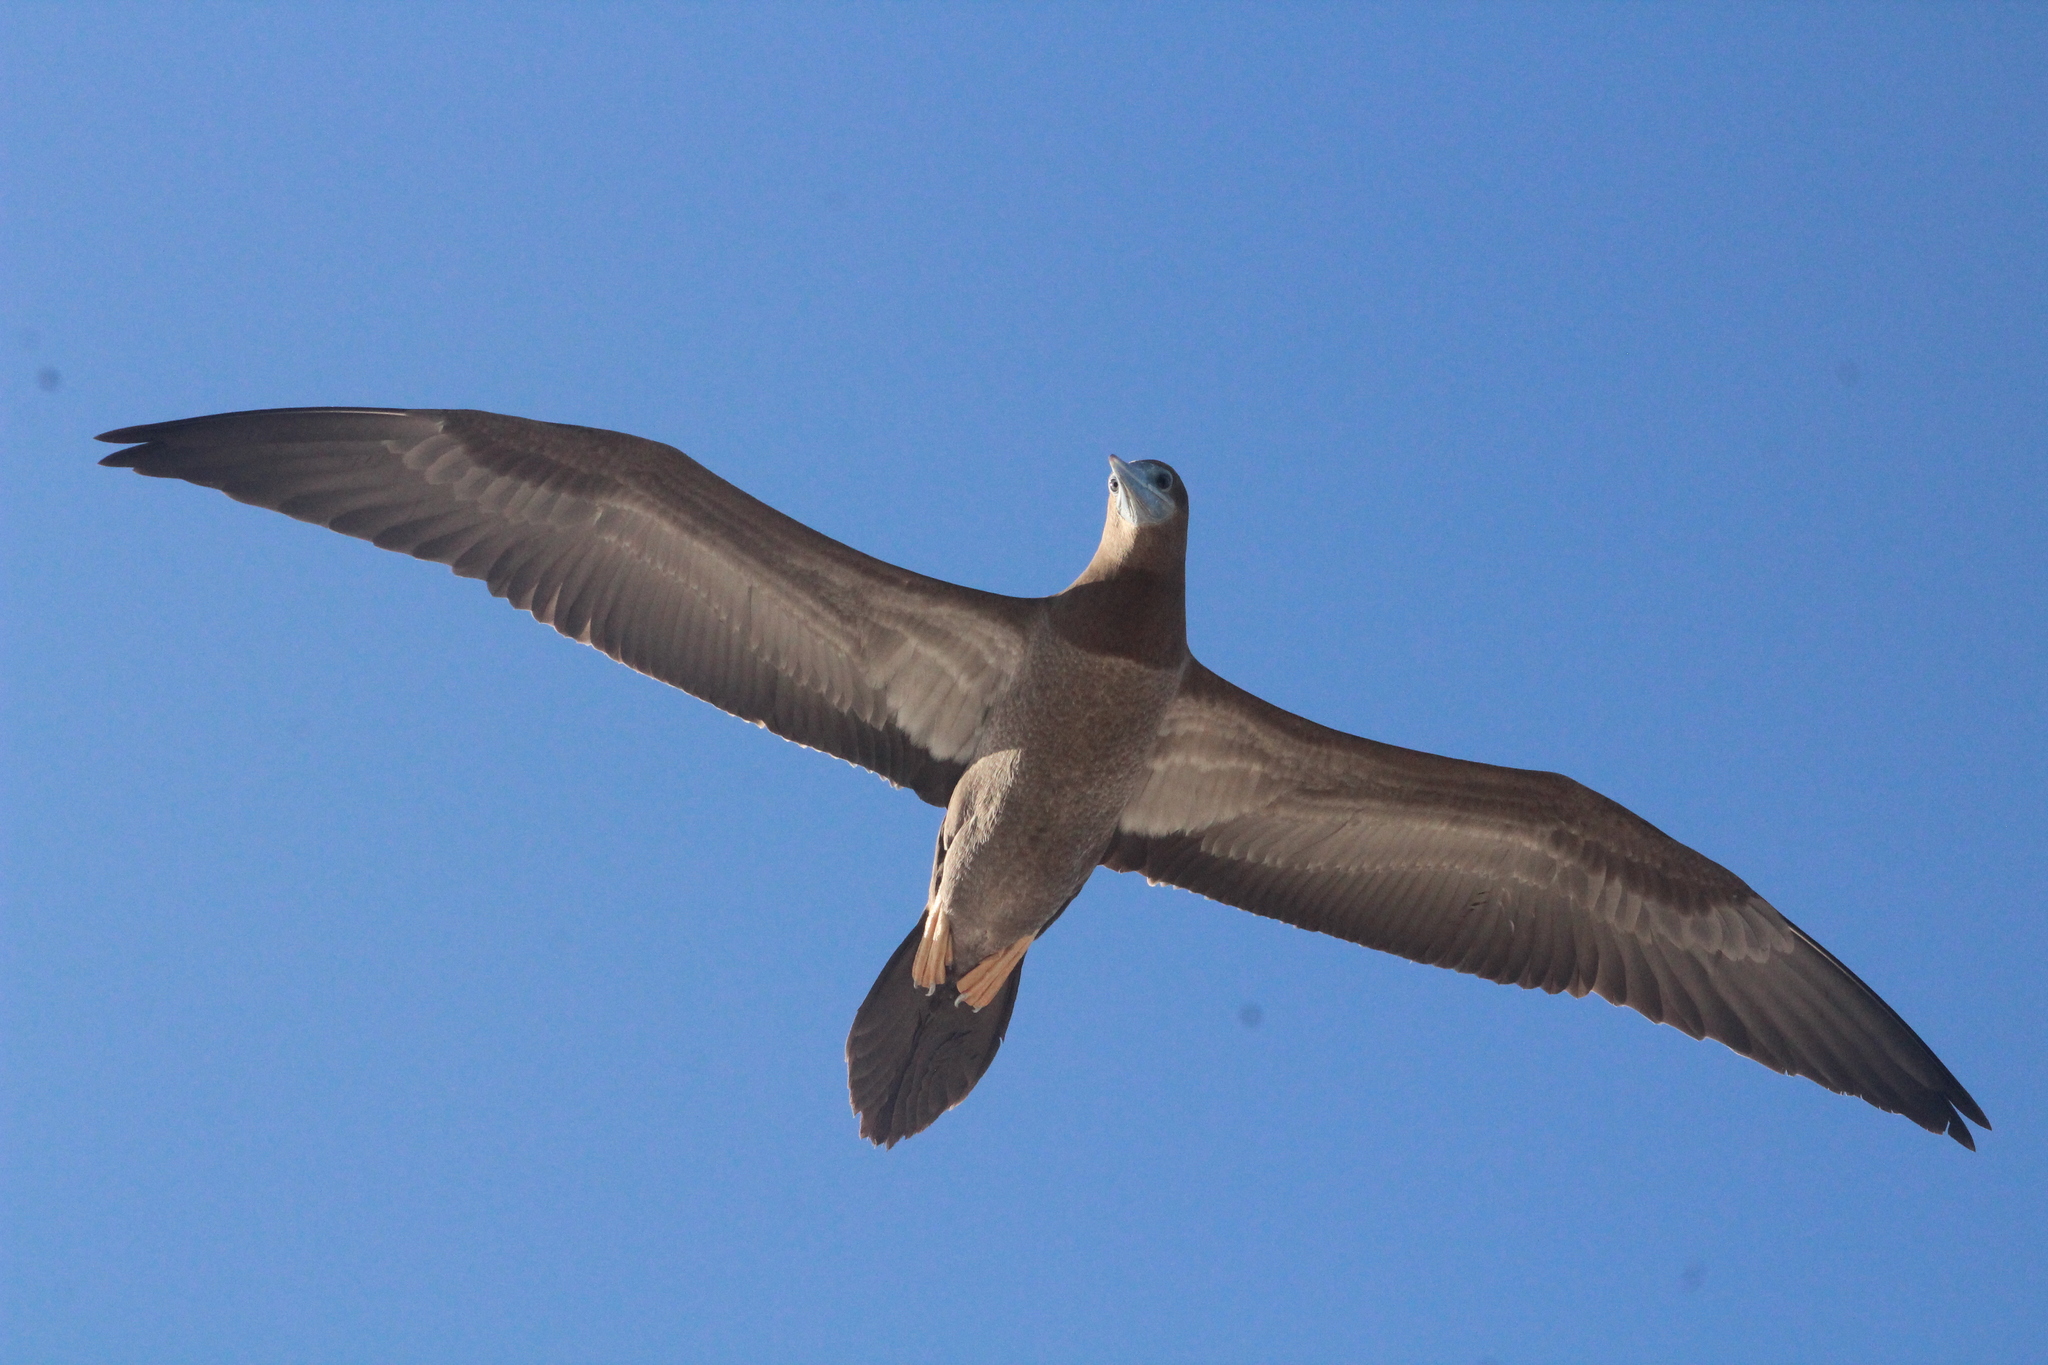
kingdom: Animalia
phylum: Chordata
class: Aves
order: Suliformes
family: Sulidae
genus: Sula
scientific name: Sula leucogaster
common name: Brown booby
